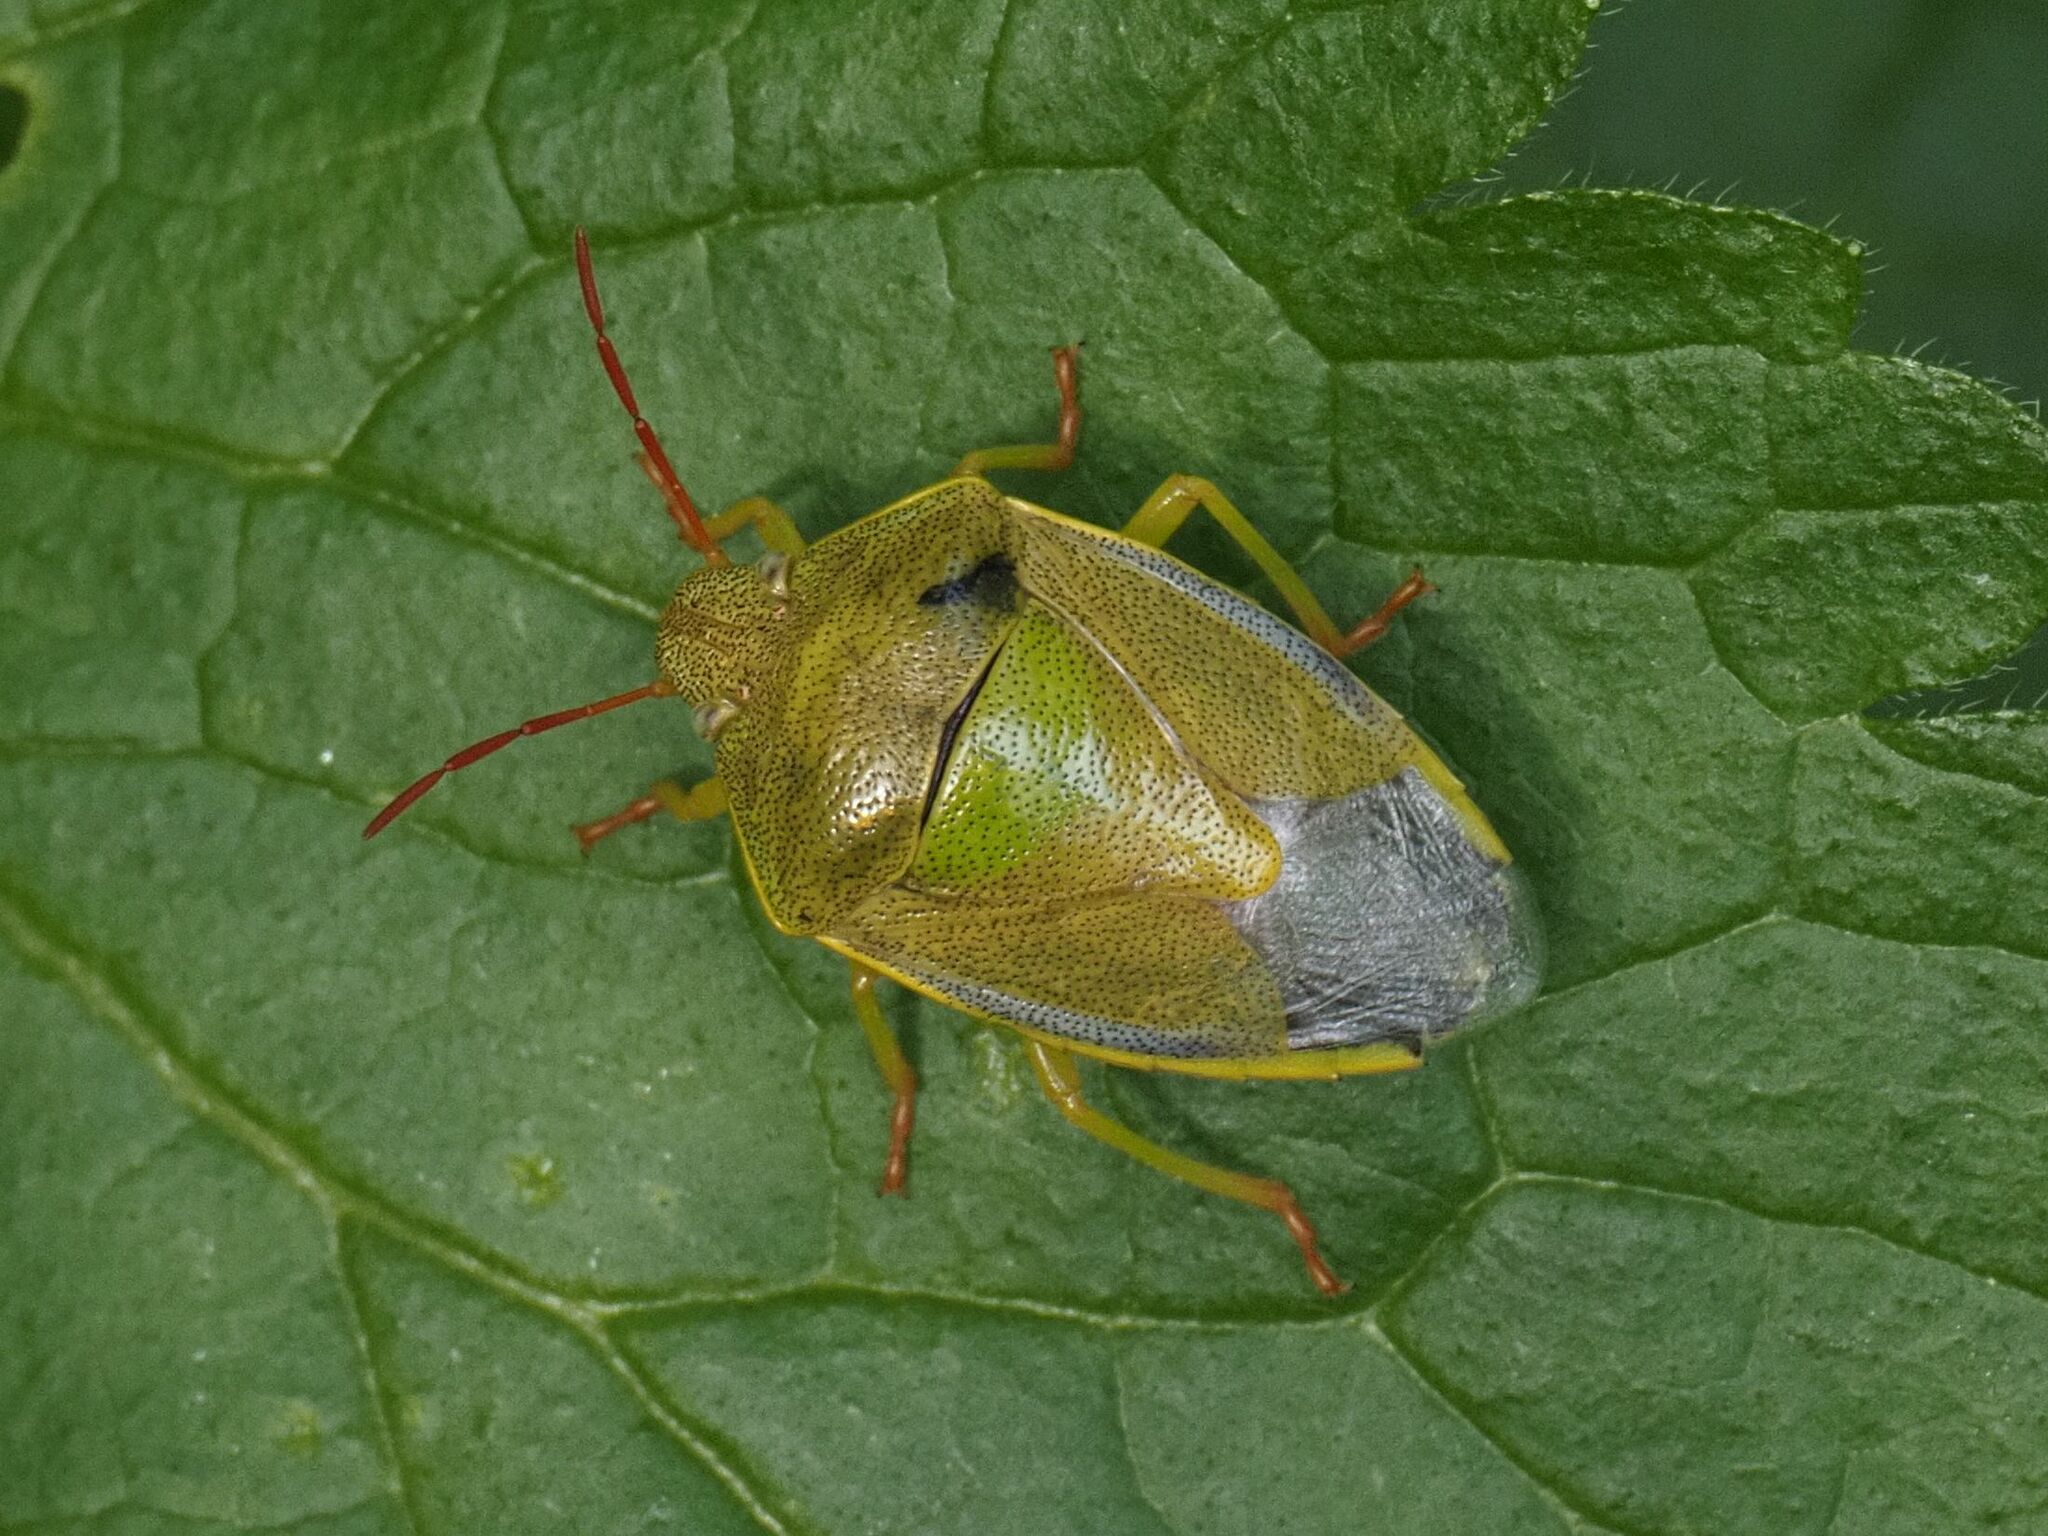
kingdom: Animalia
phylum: Arthropoda
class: Insecta
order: Hemiptera
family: Pentatomidae
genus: Piezodorus
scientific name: Piezodorus lituratus
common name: Stink bug
